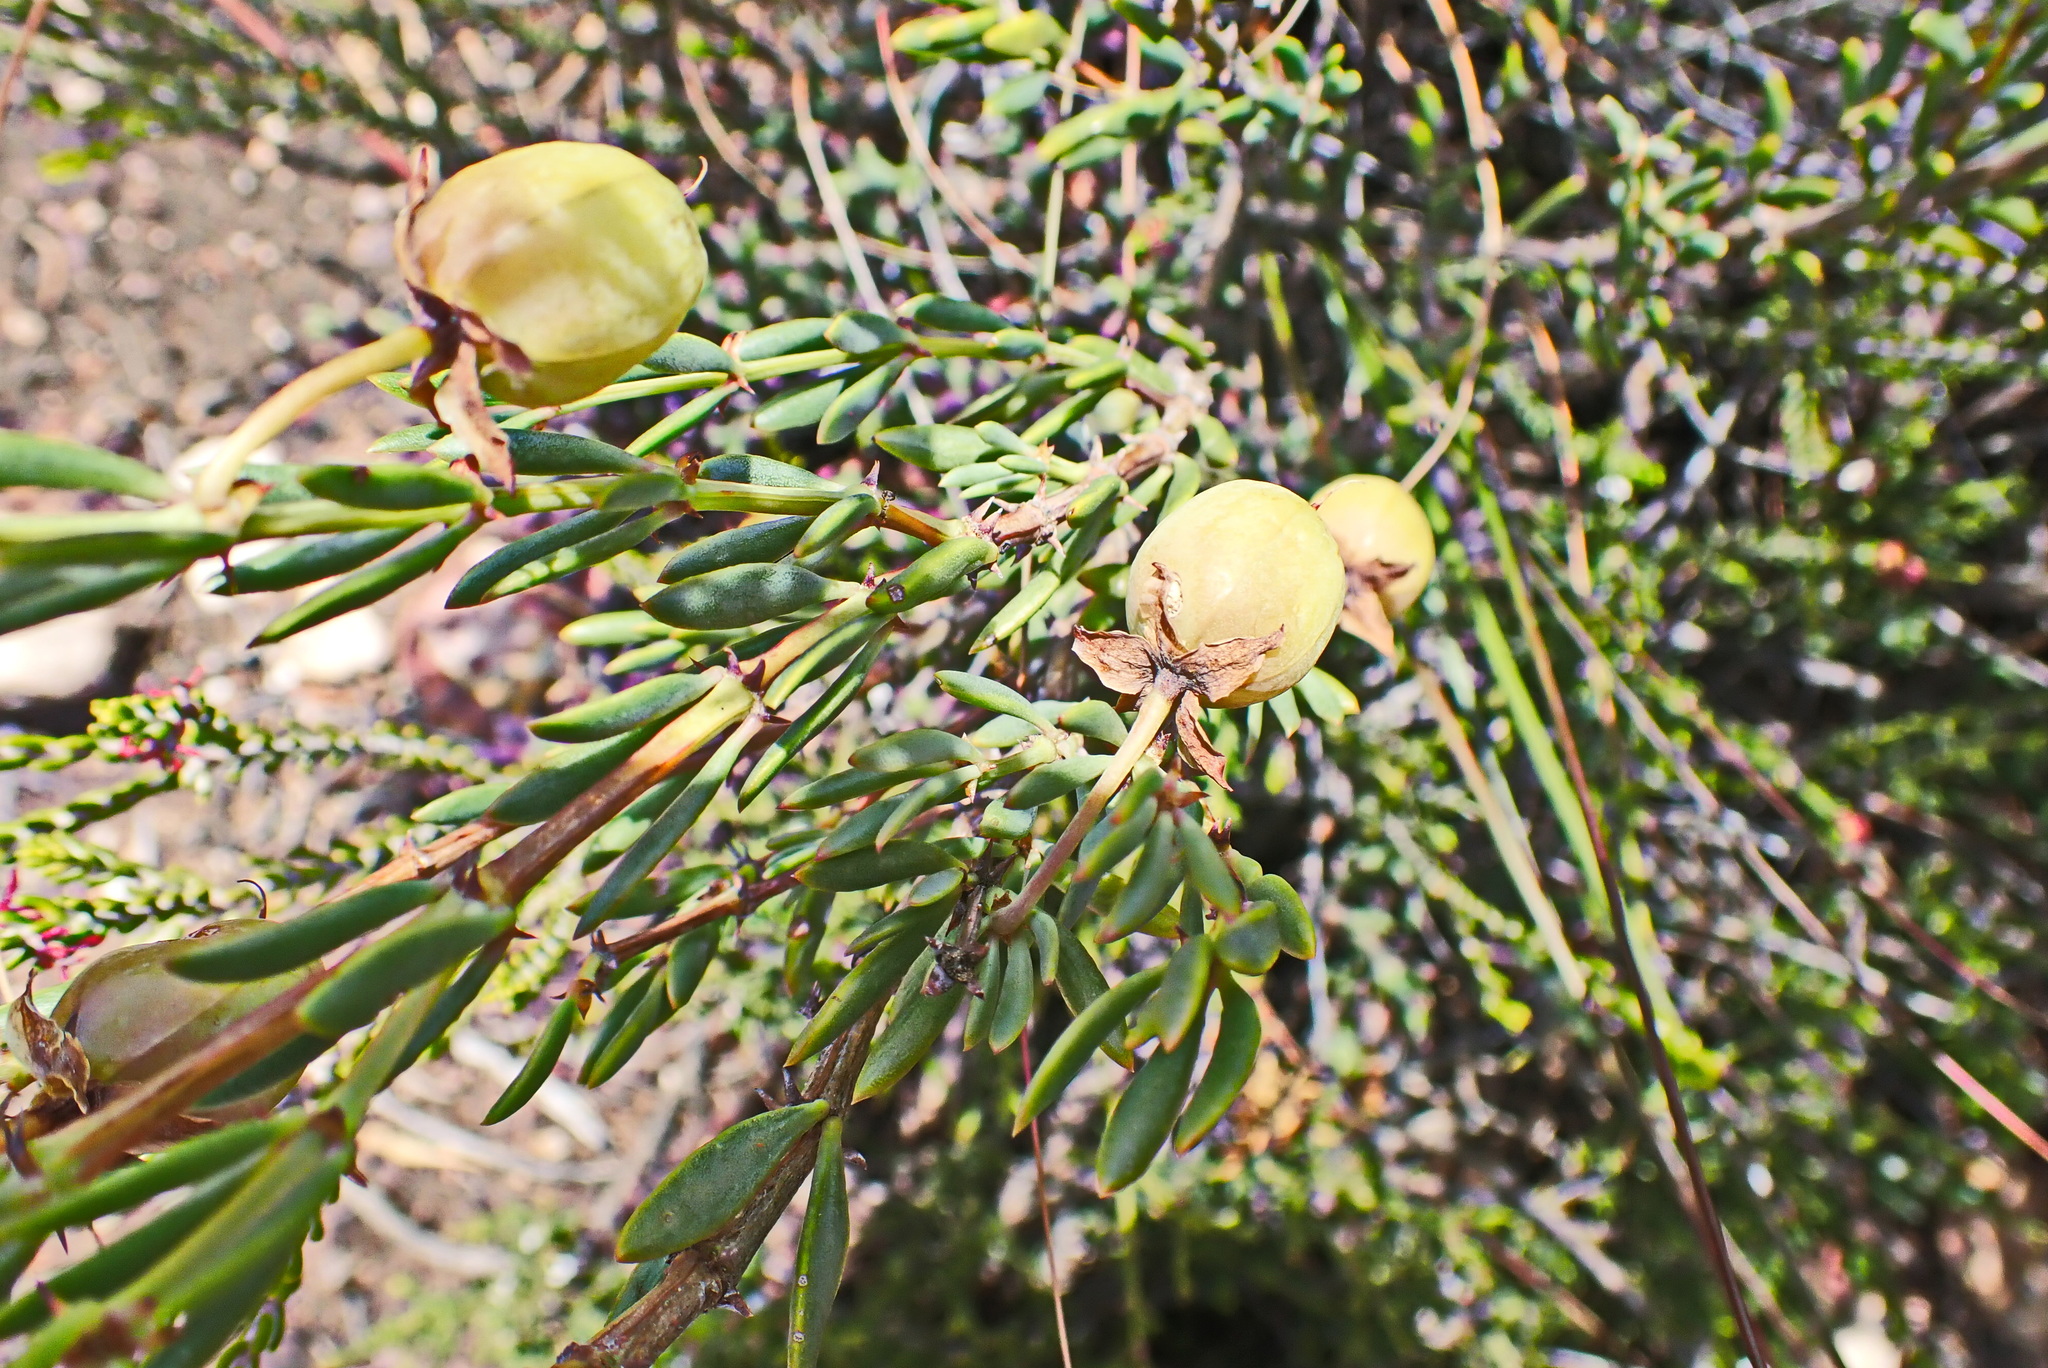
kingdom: Plantae
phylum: Tracheophyta
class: Magnoliopsida
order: Zygophyllales
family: Zygophyllaceae
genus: Roepera
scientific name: Roepera fulva
